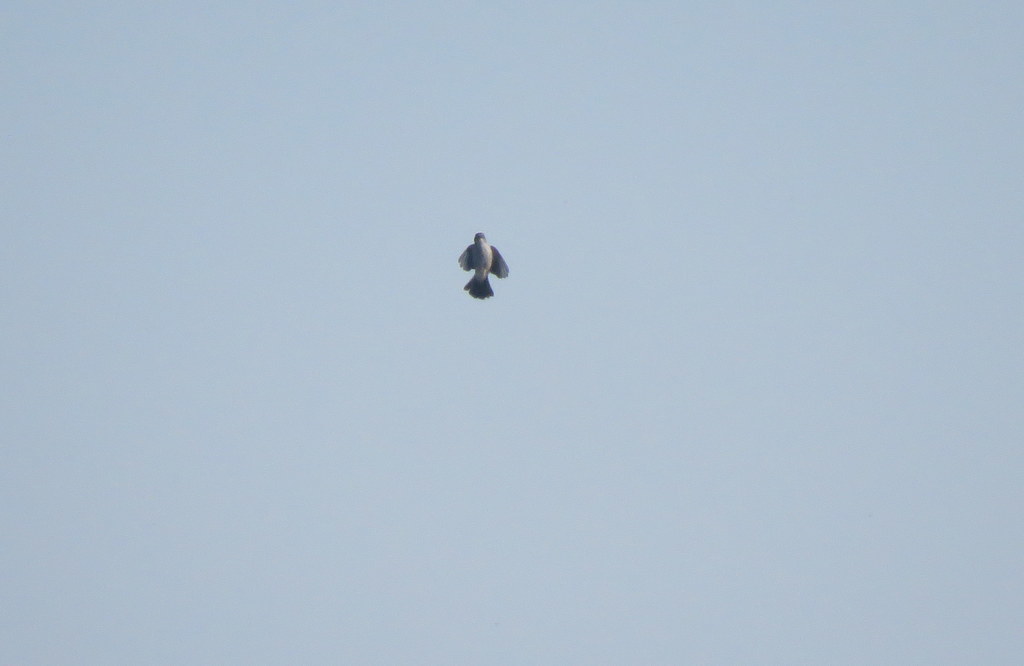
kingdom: Animalia
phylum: Chordata
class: Aves
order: Passeriformes
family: Tyrannidae
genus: Serpophaga
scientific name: Serpophaga nigricans
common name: Sooty tyrannulet
